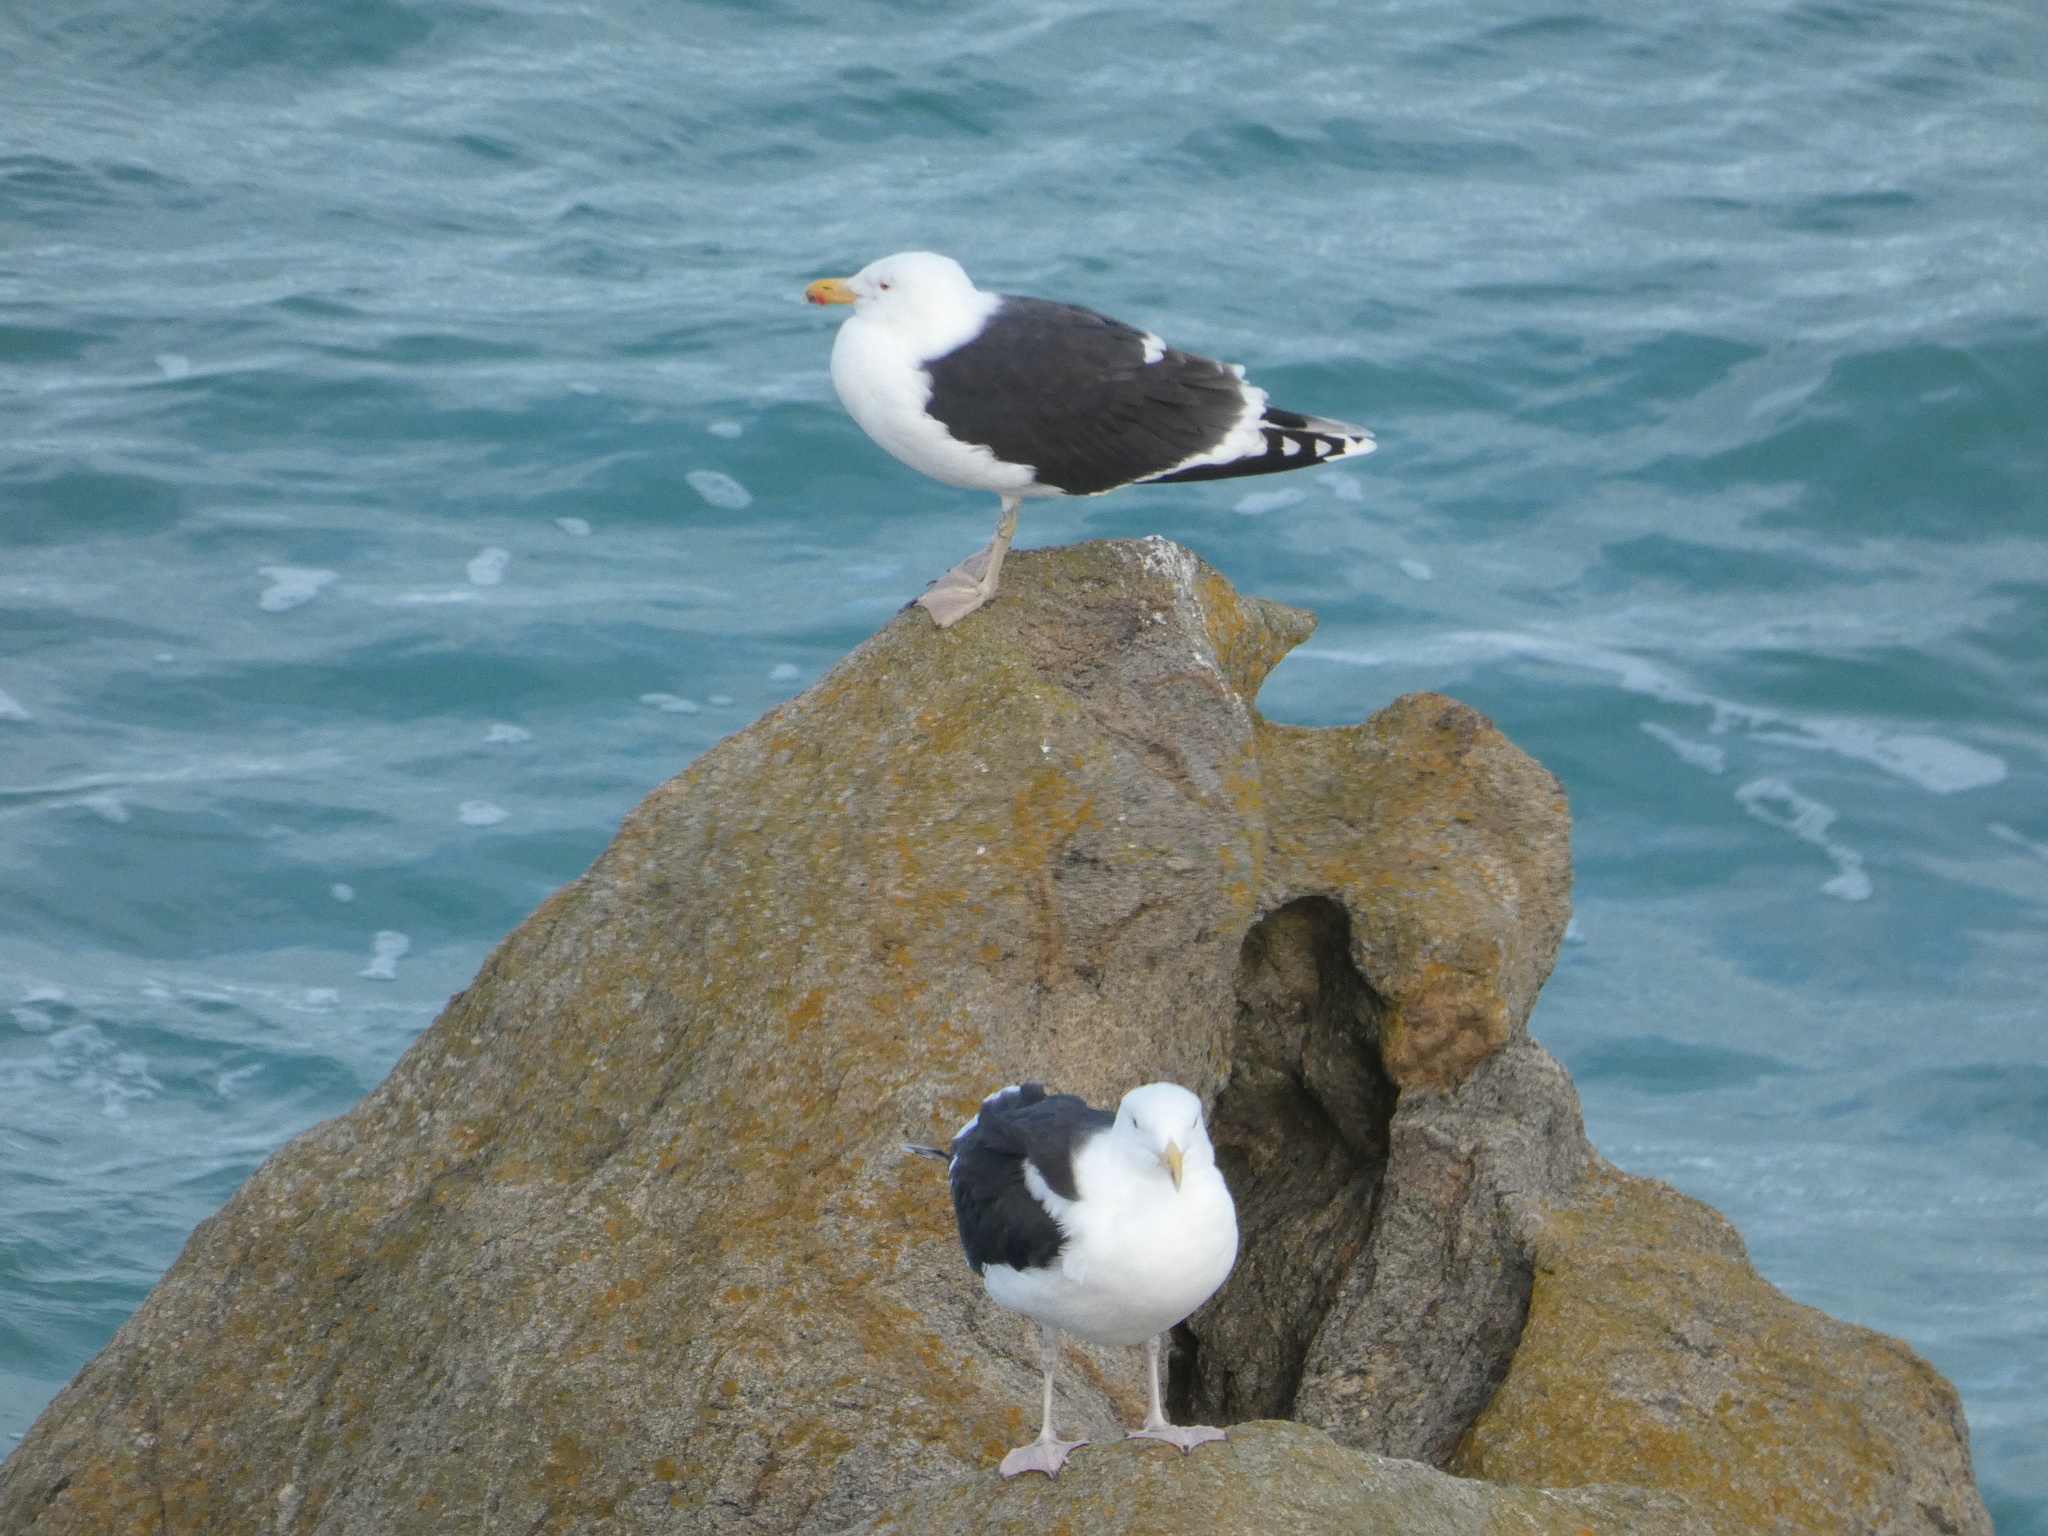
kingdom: Animalia
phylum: Chordata
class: Aves
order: Charadriiformes
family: Laridae
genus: Larus
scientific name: Larus marinus
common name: Great black-backed gull
